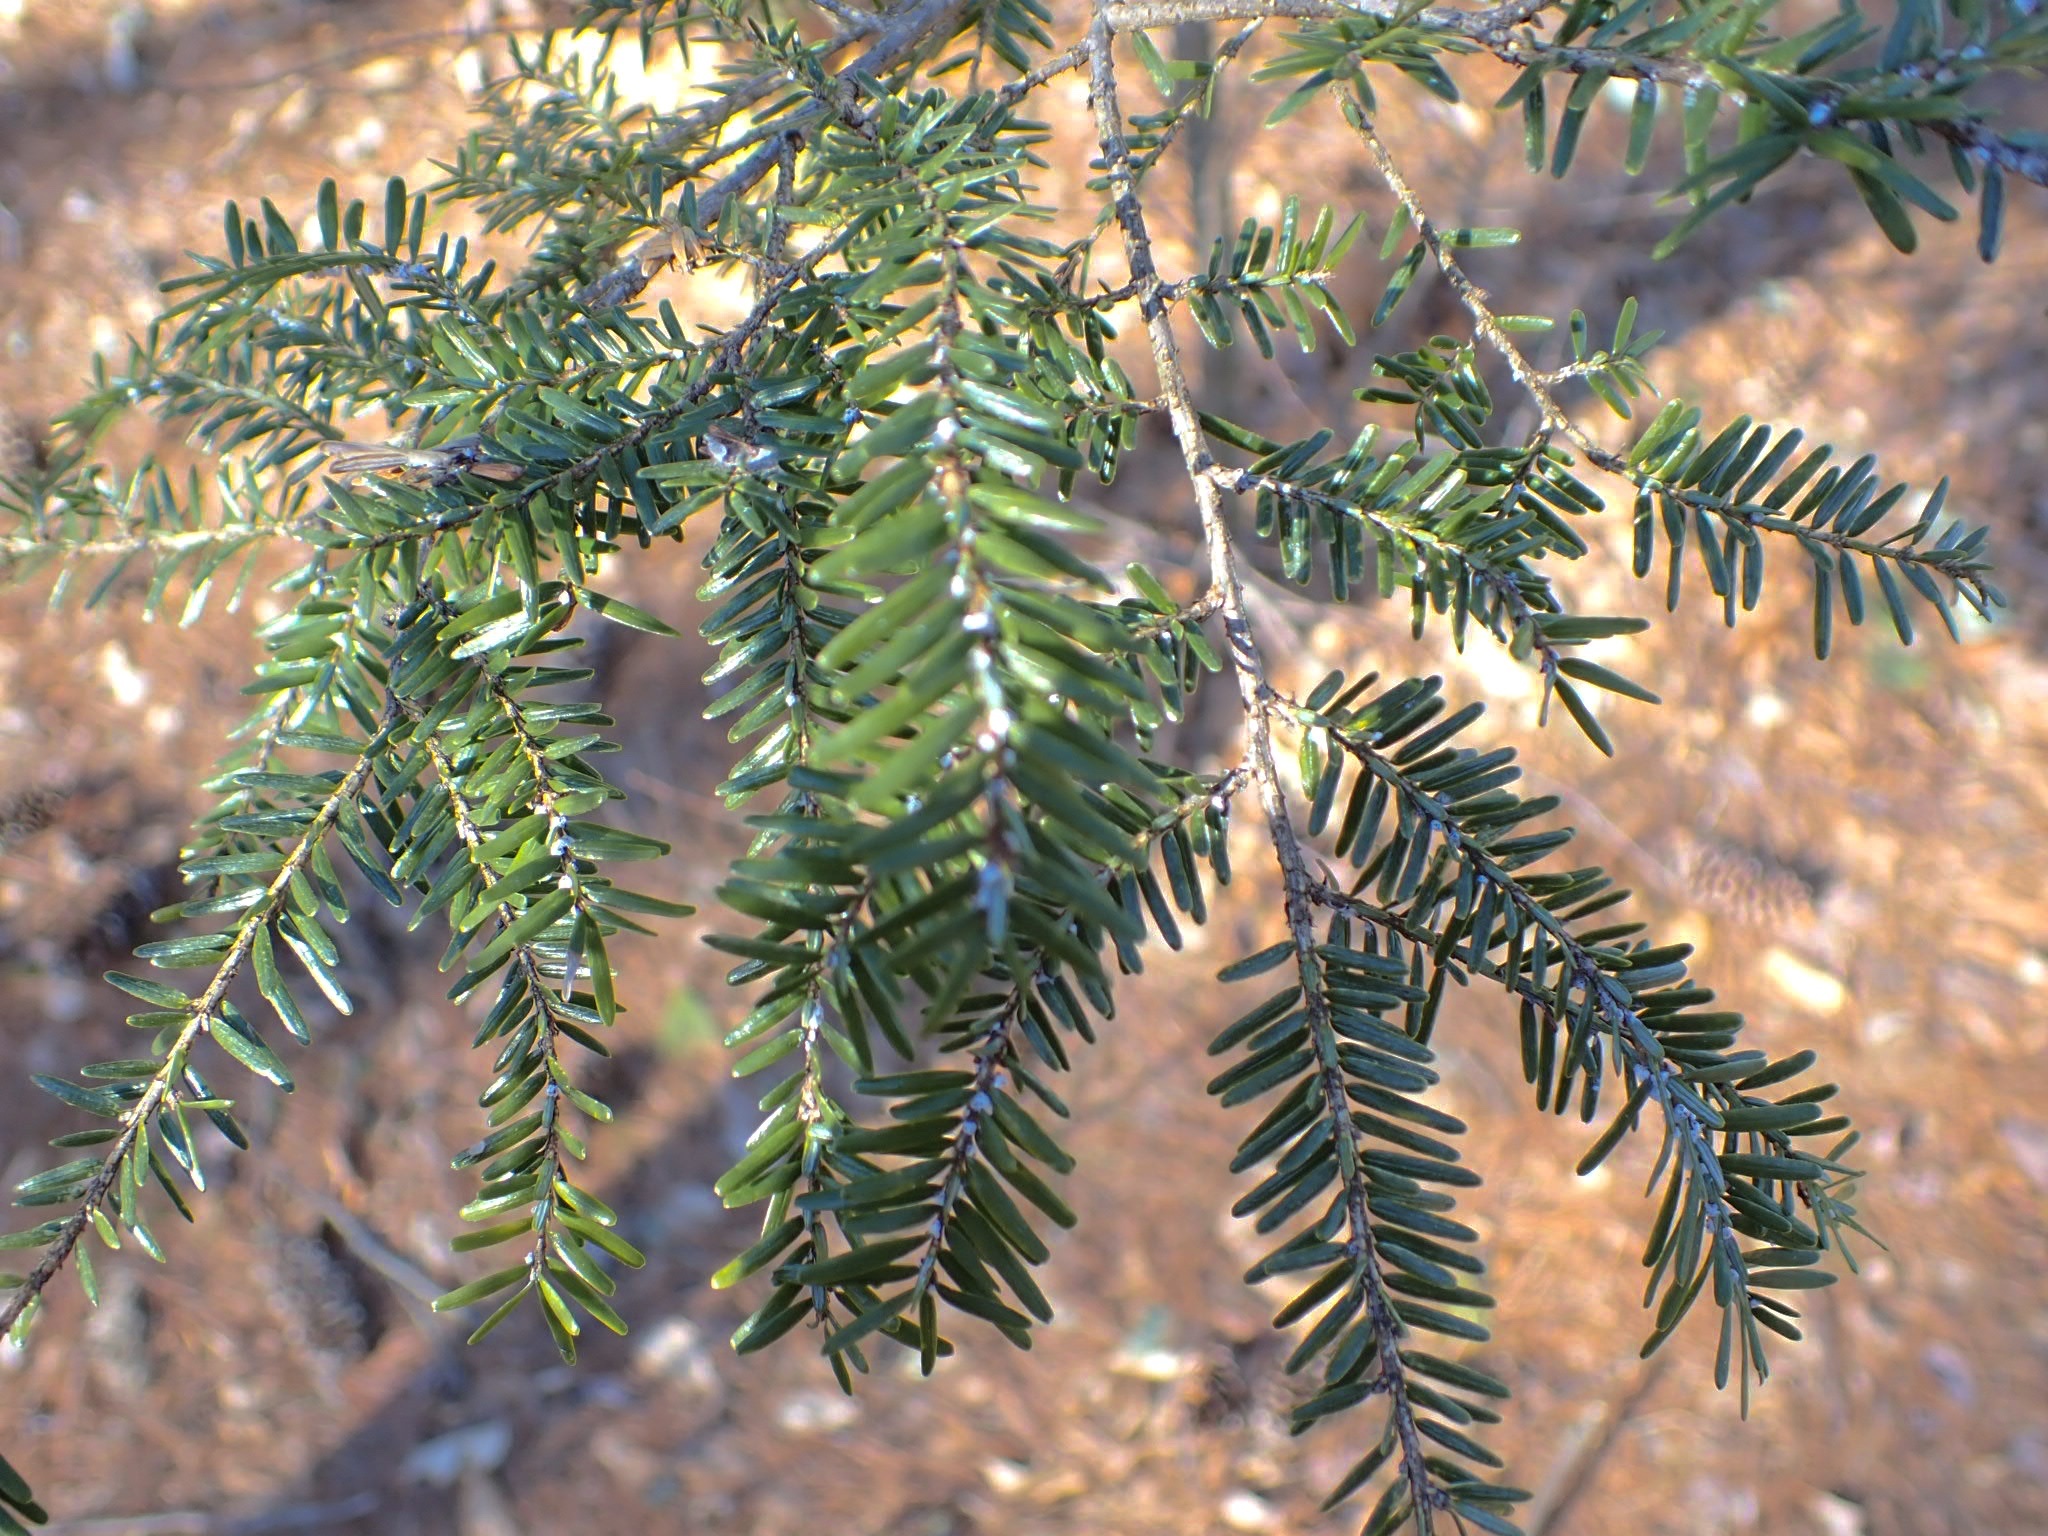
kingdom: Plantae
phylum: Tracheophyta
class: Pinopsida
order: Pinales
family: Pinaceae
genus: Tsuga
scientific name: Tsuga canadensis
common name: Eastern hemlock
